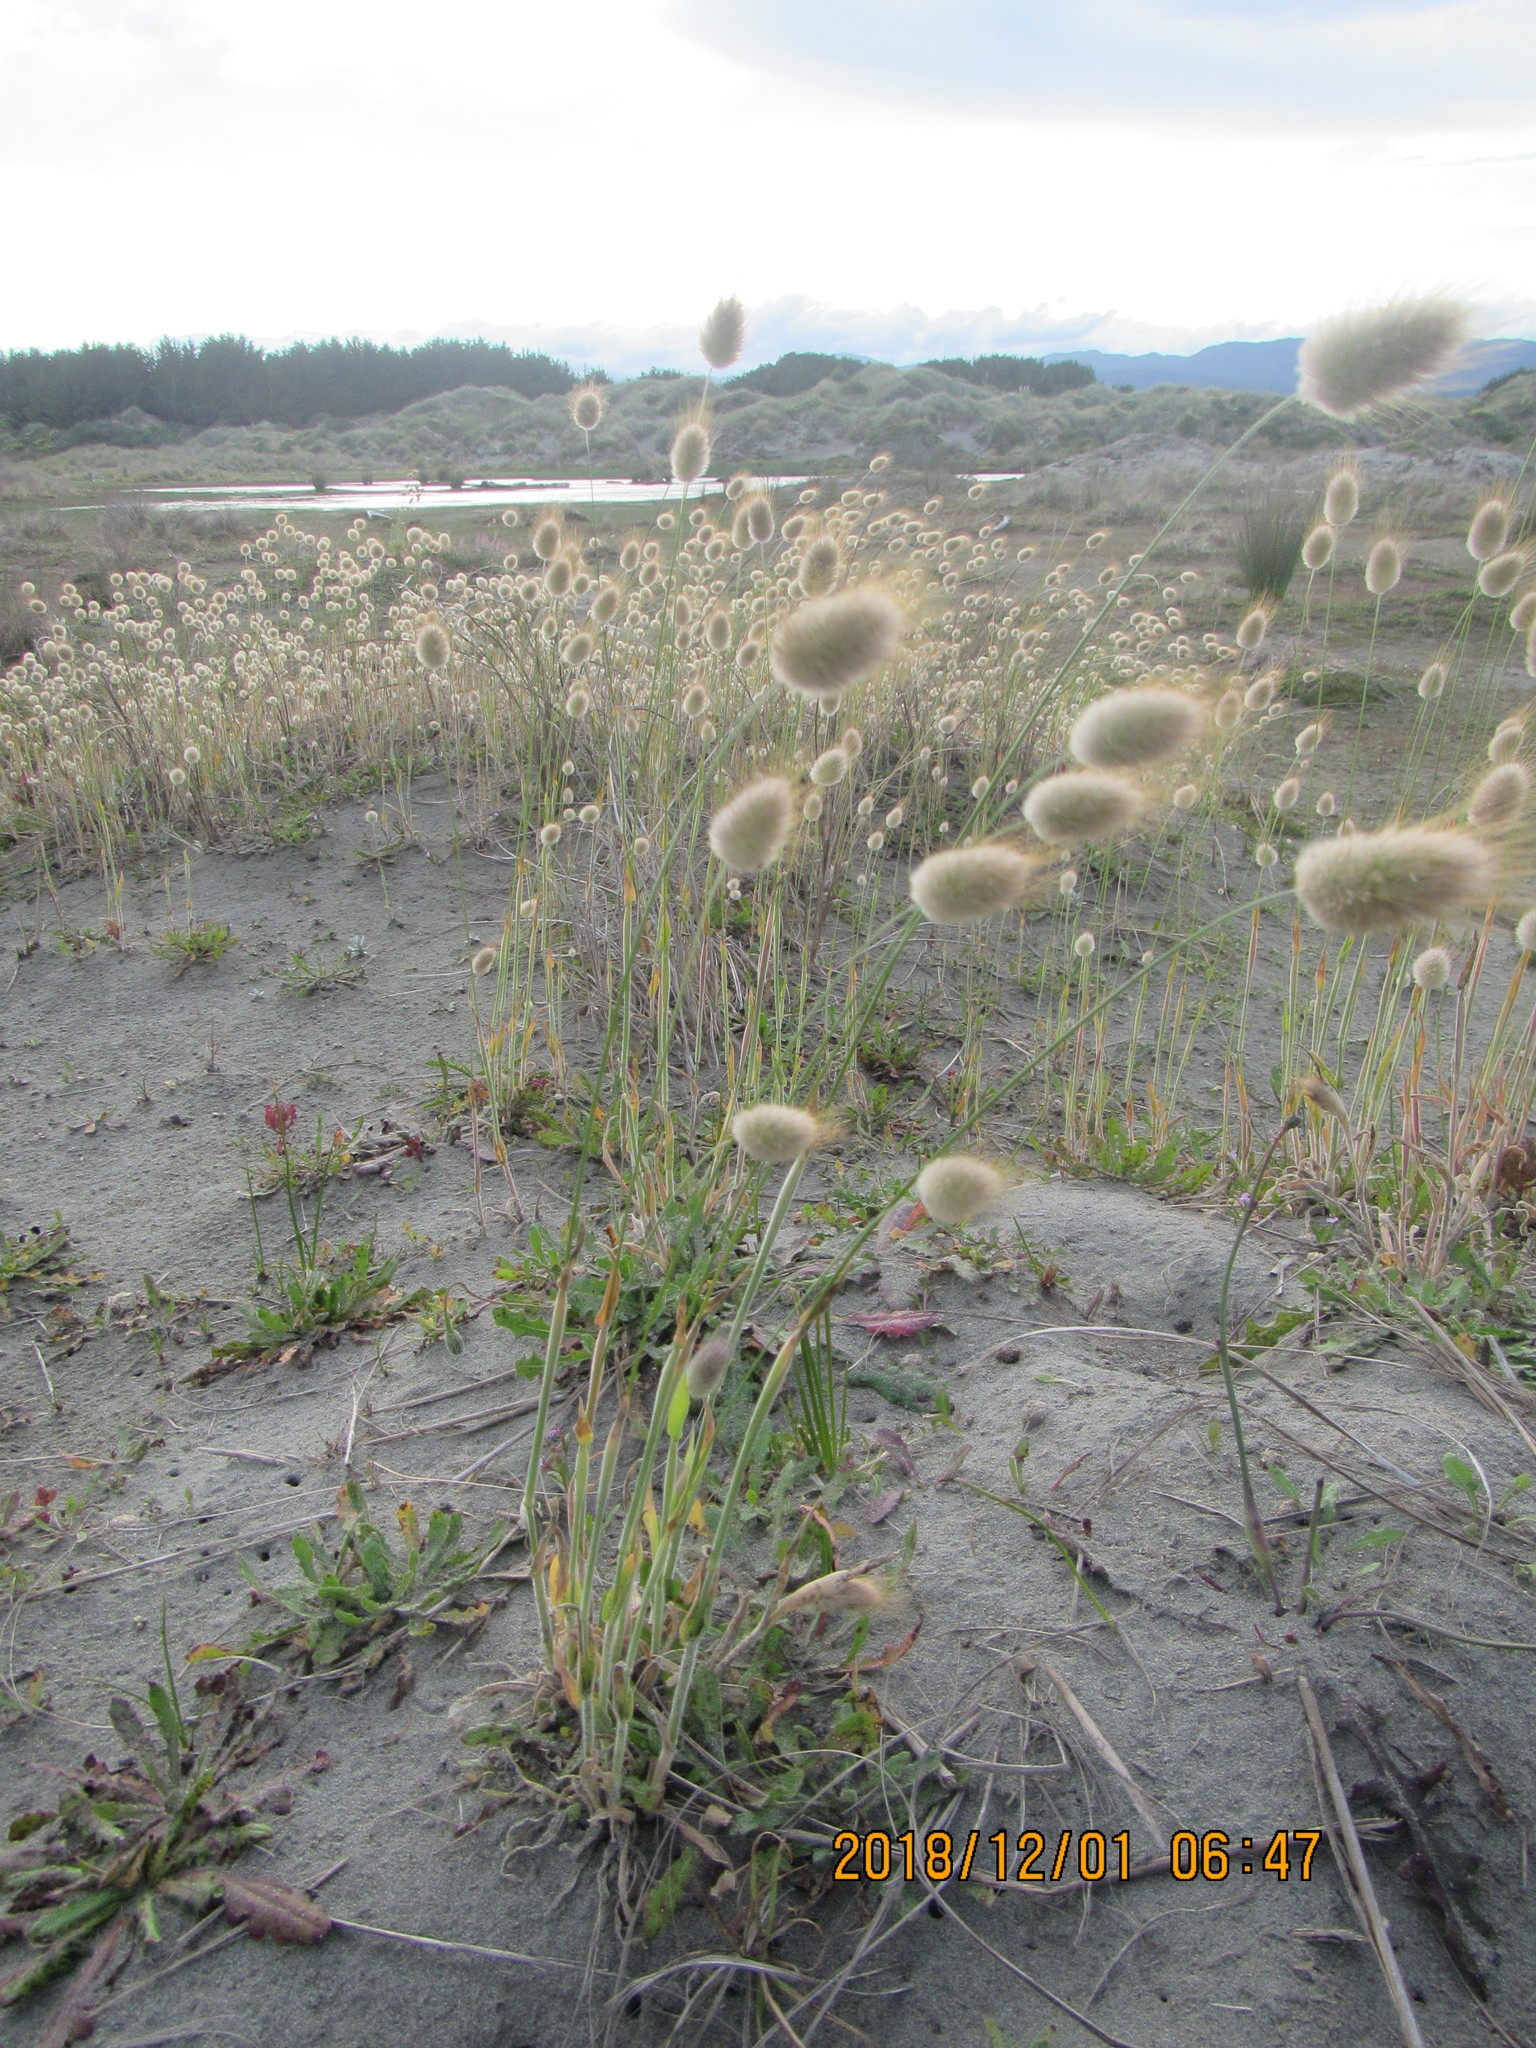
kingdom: Plantae
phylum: Tracheophyta
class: Liliopsida
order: Poales
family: Poaceae
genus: Lagurus
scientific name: Lagurus ovatus
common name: Hare's-tail
